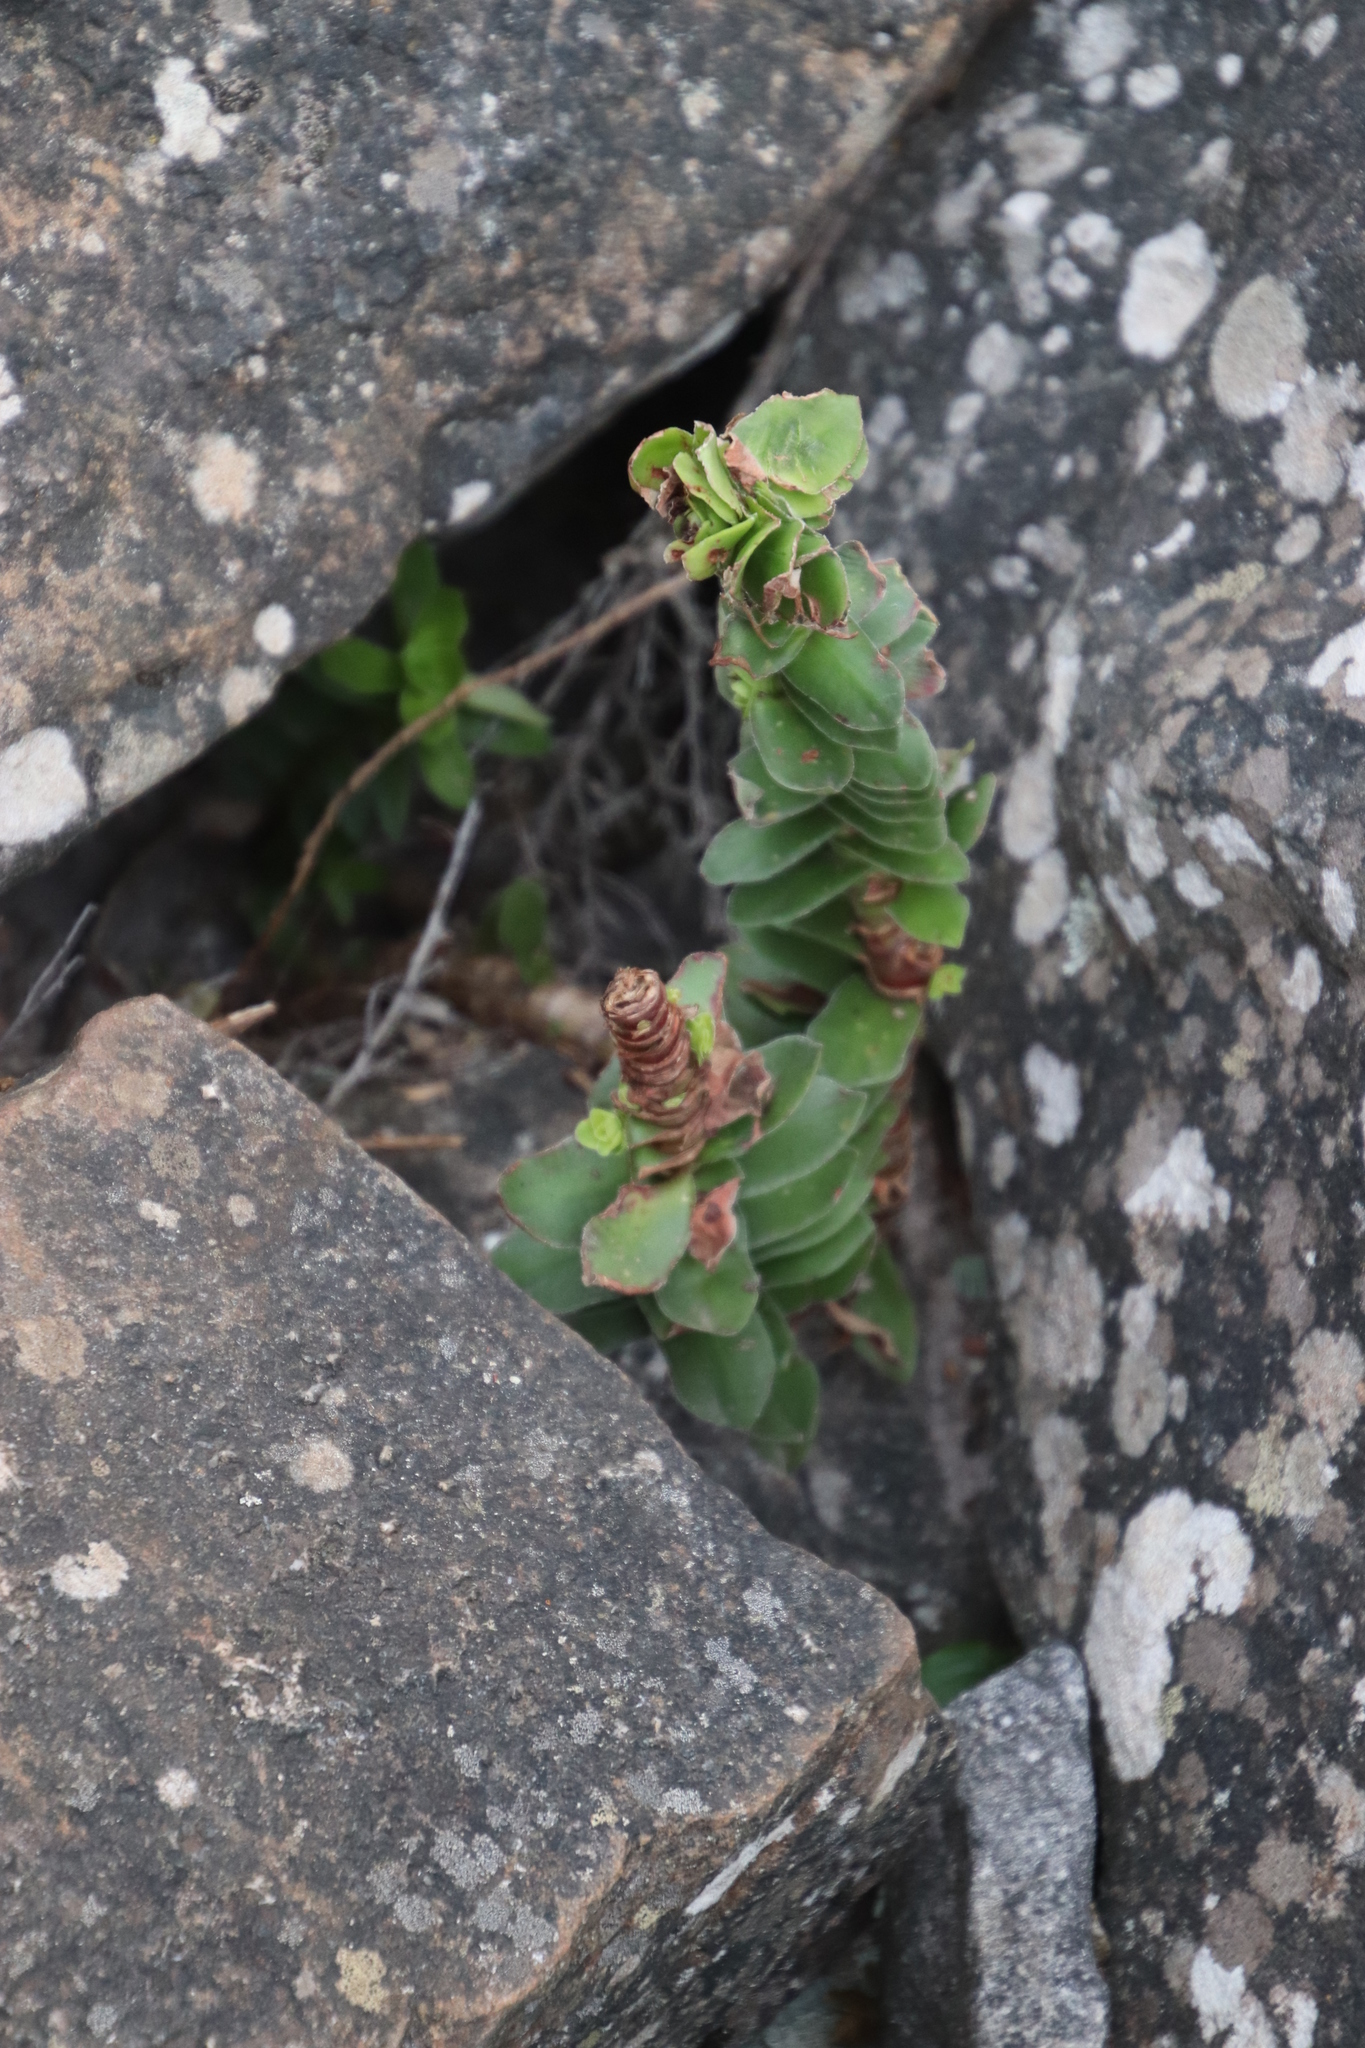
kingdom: Plantae
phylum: Tracheophyta
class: Magnoliopsida
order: Saxifragales
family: Crassulaceae
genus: Crassula
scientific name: Crassula coccinea
